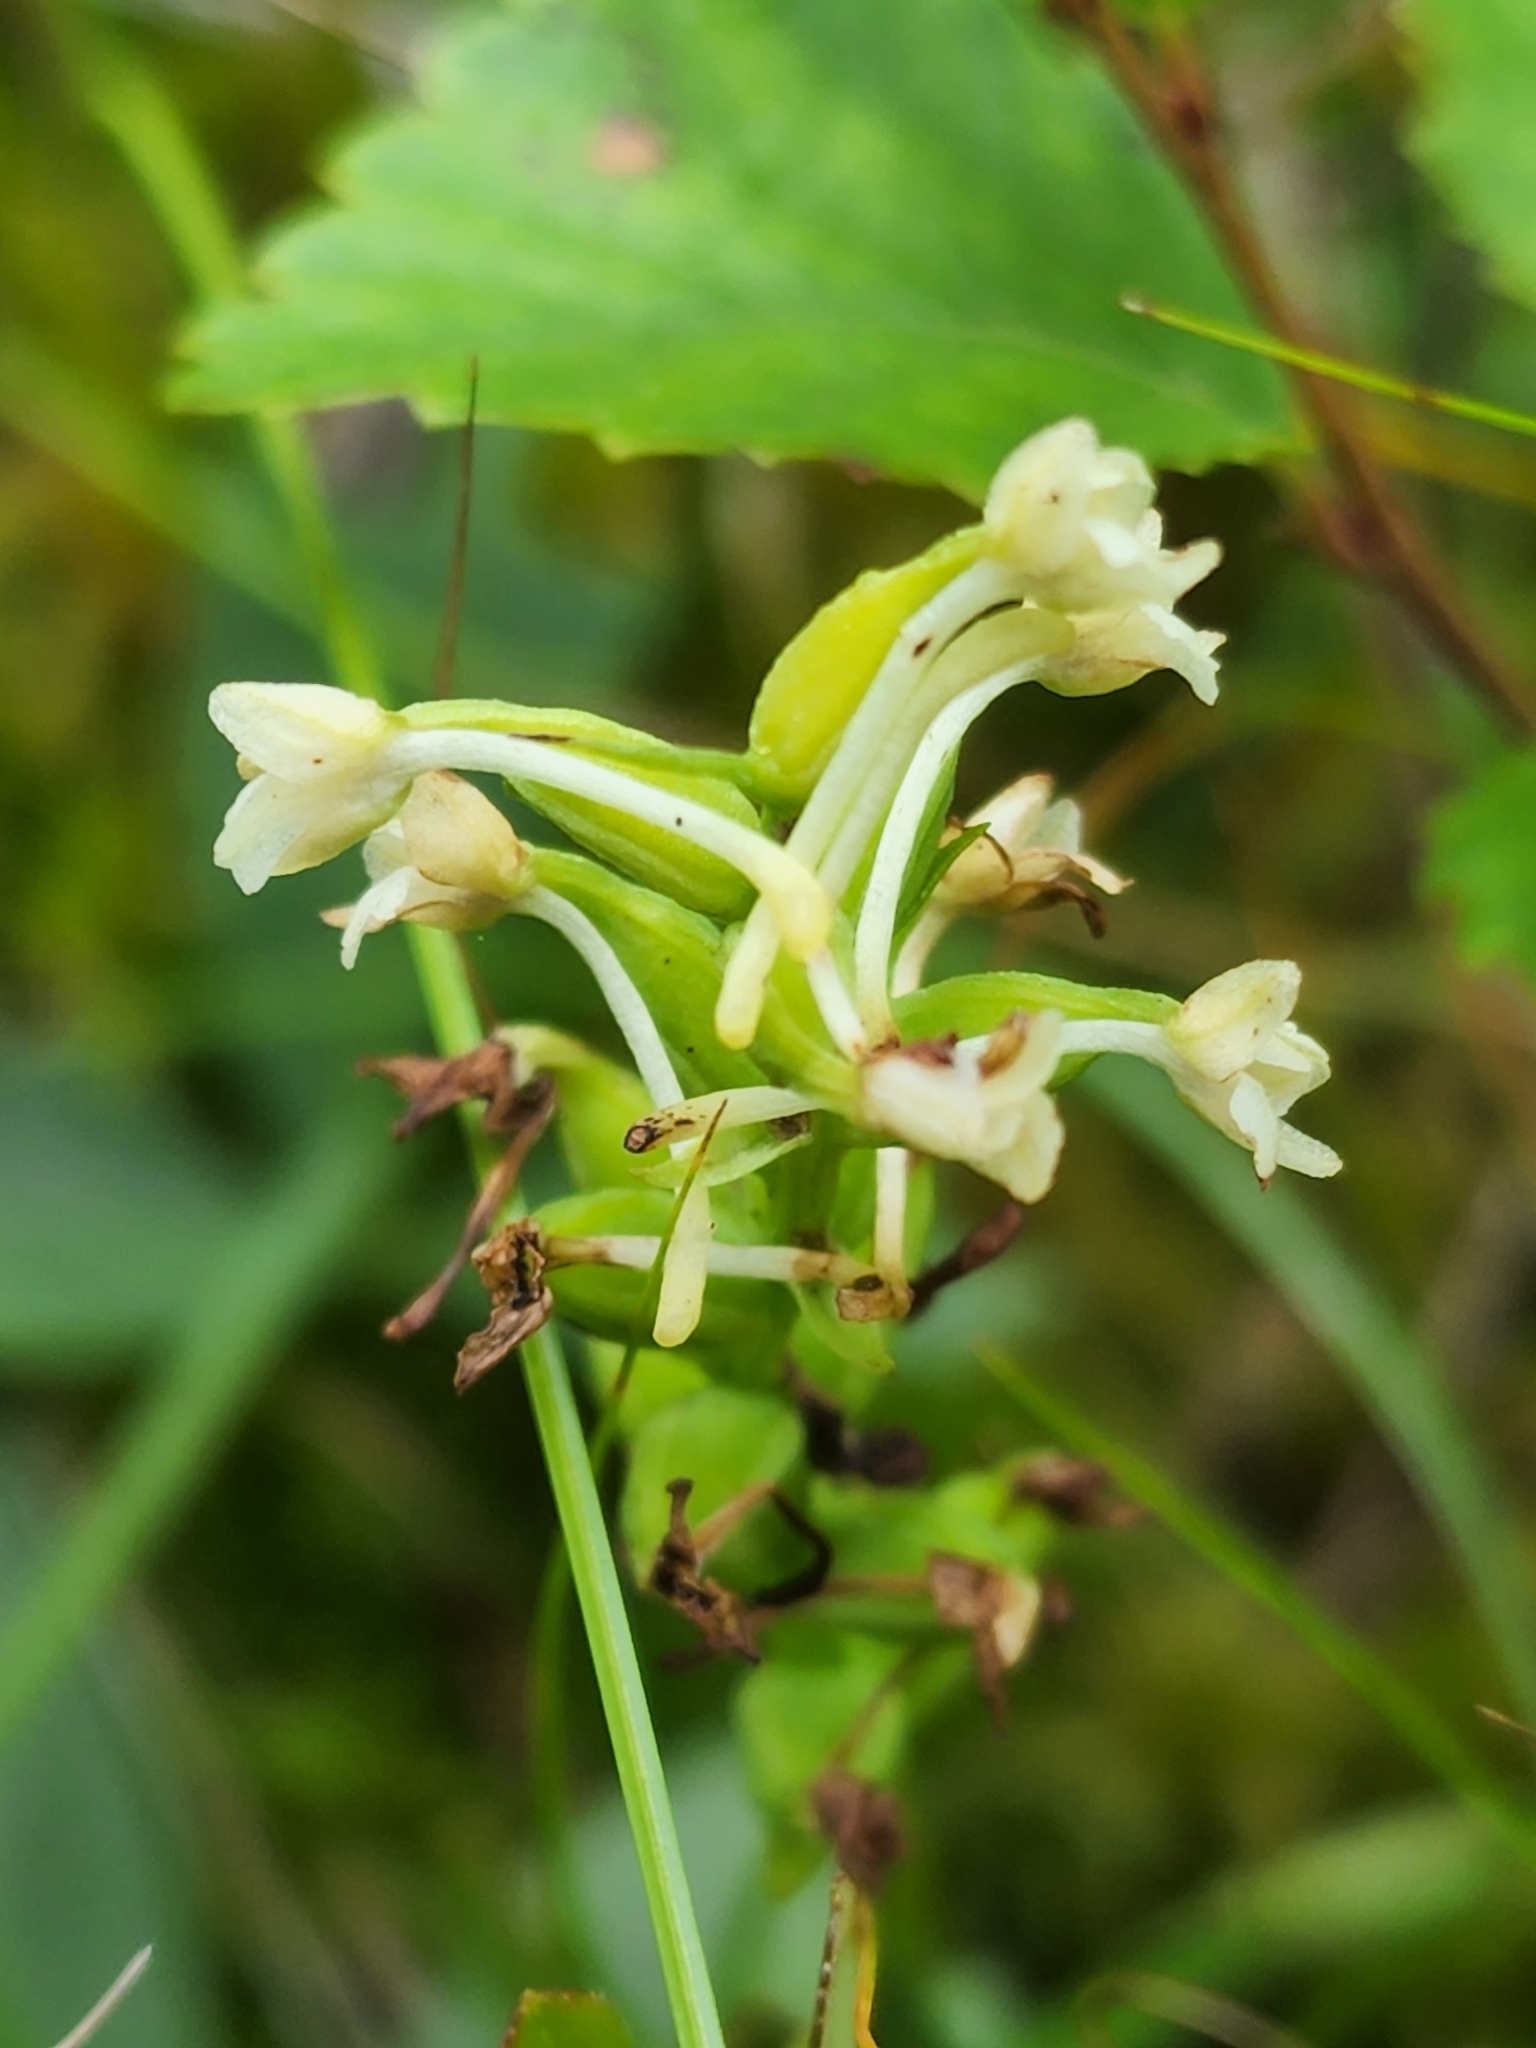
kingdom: Plantae
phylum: Tracheophyta
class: Liliopsida
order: Asparagales
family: Orchidaceae
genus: Platanthera
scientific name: Platanthera clavellata
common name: Club-spur orchid
